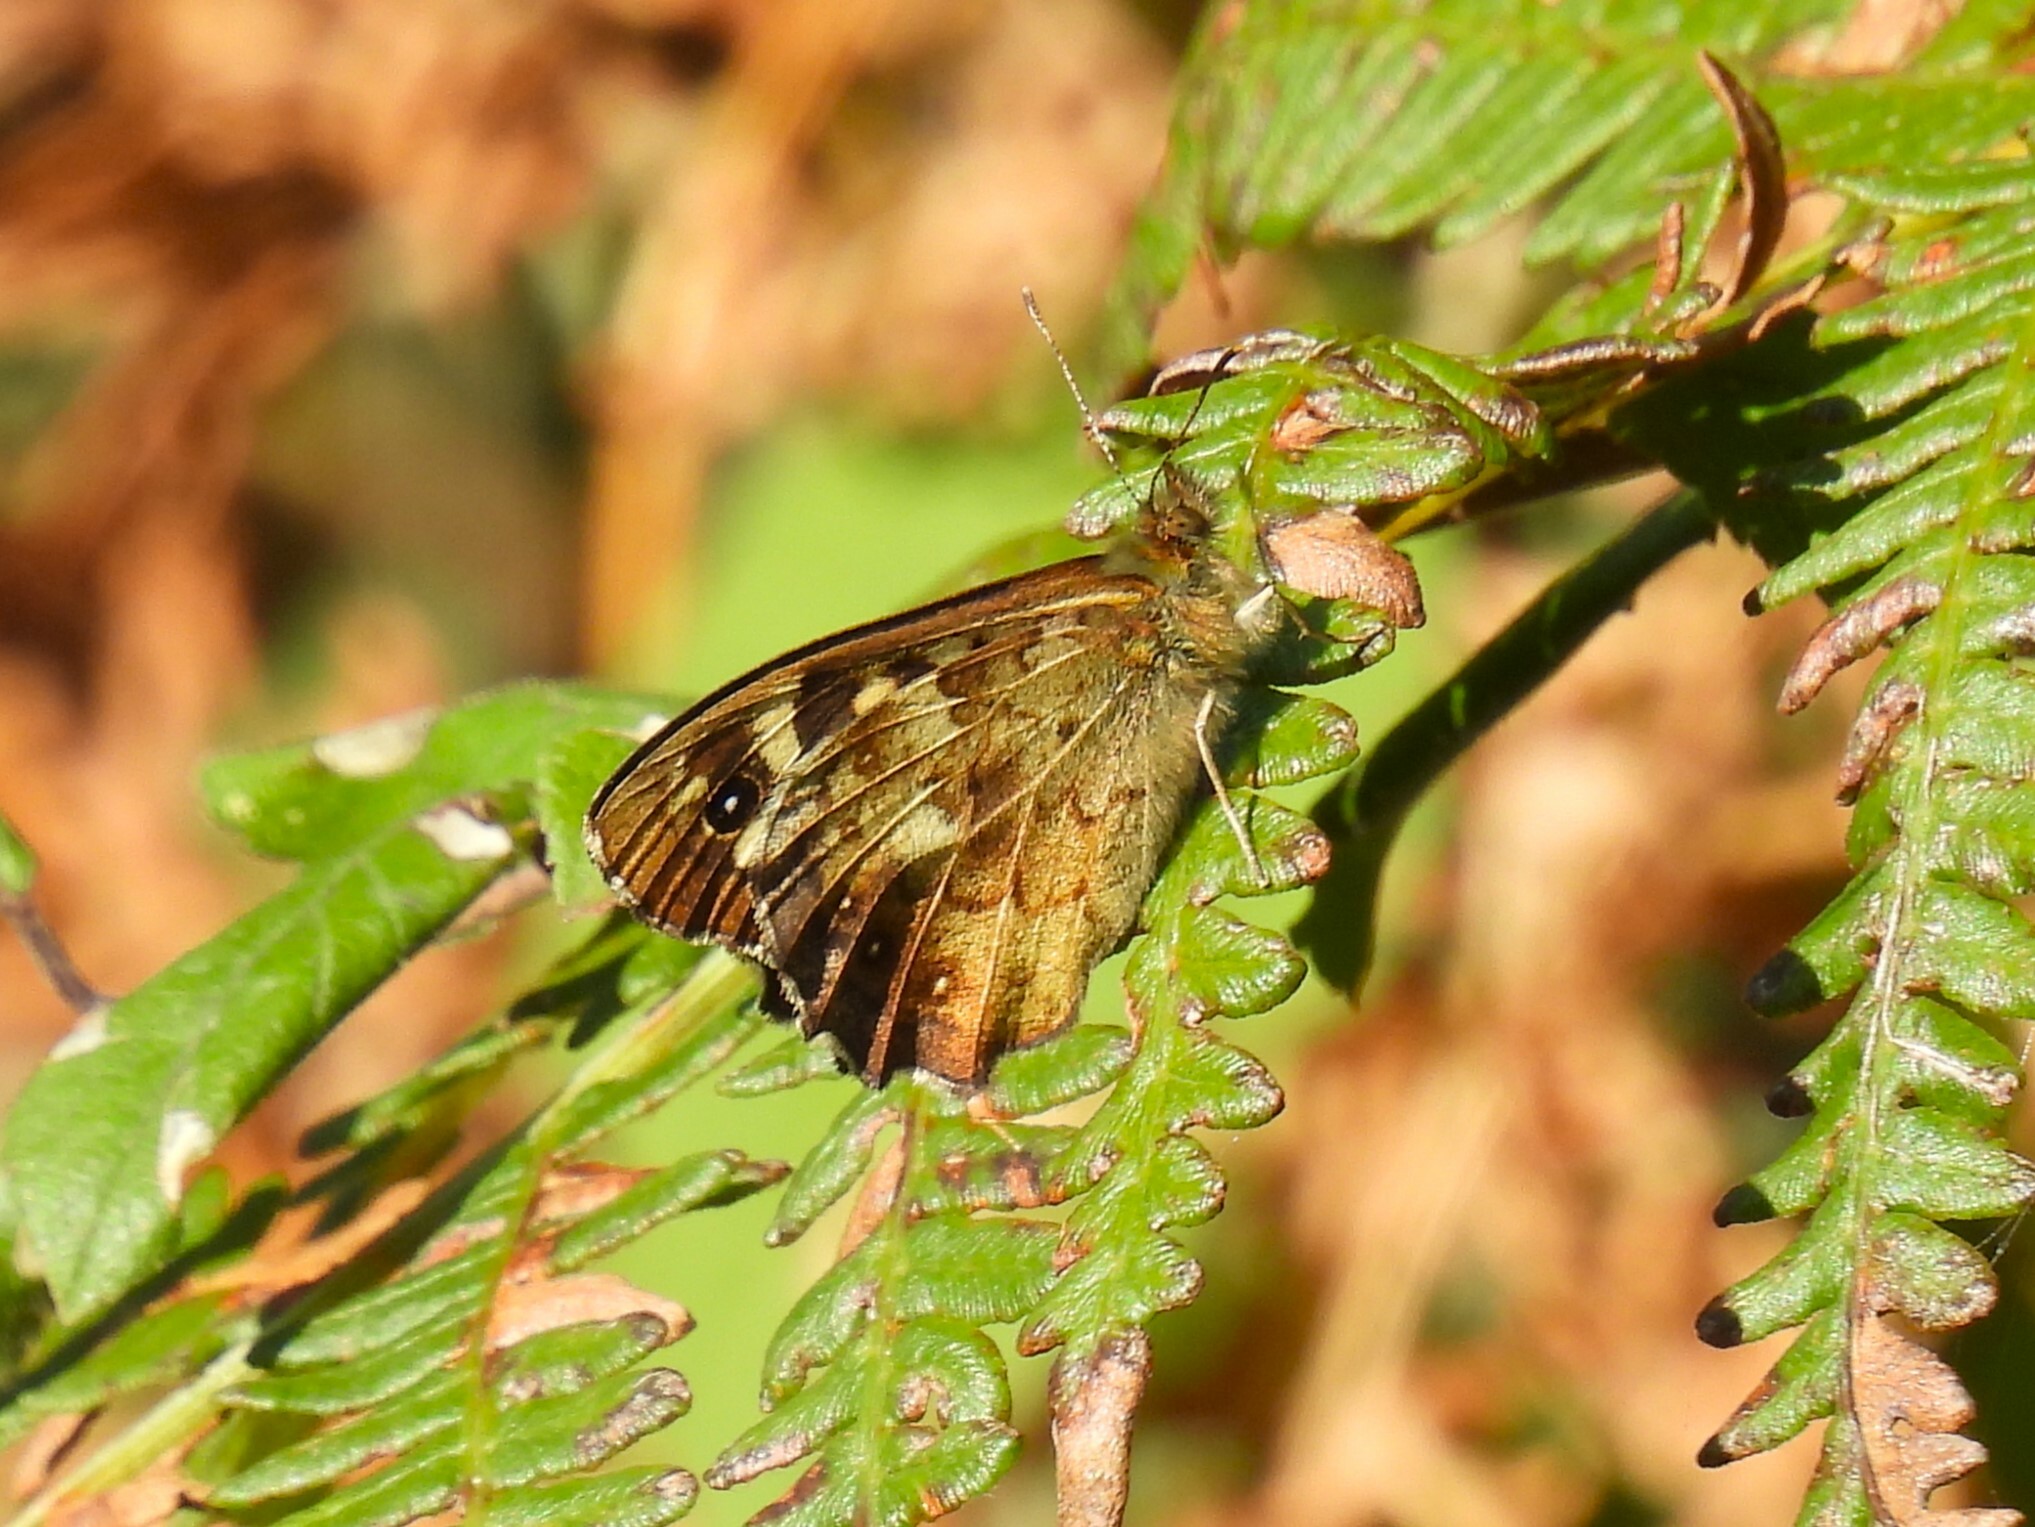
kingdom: Animalia
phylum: Arthropoda
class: Insecta
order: Lepidoptera
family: Nymphalidae
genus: Pararge
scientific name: Pararge aegeria
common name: Speckled wood
